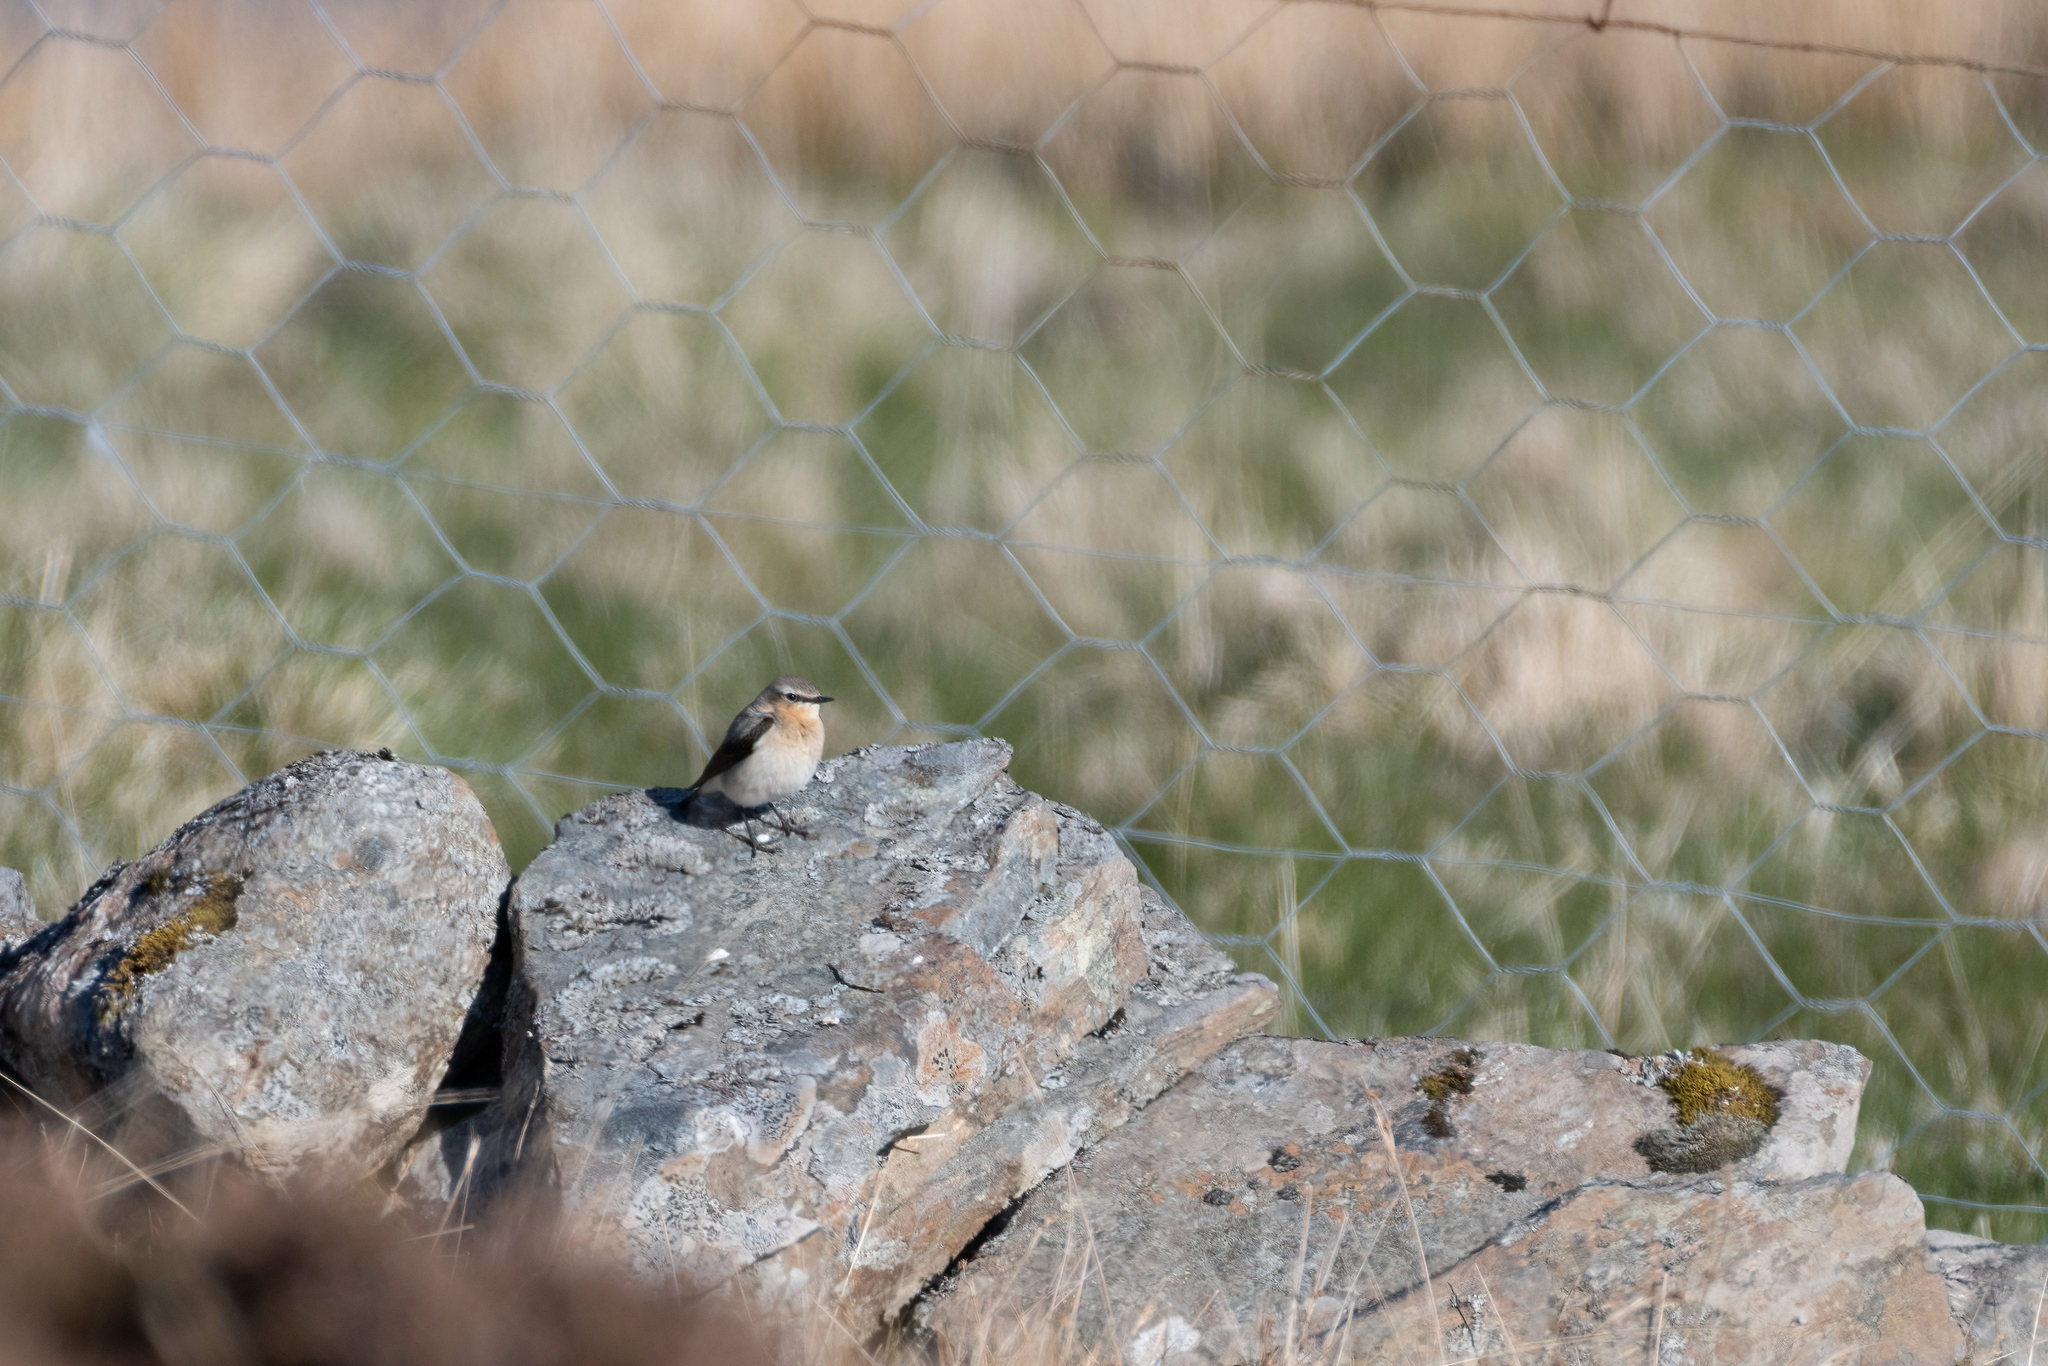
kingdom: Animalia
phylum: Chordata
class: Aves
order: Passeriformes
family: Muscicapidae
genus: Oenanthe
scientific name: Oenanthe oenanthe
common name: Northern wheatear
